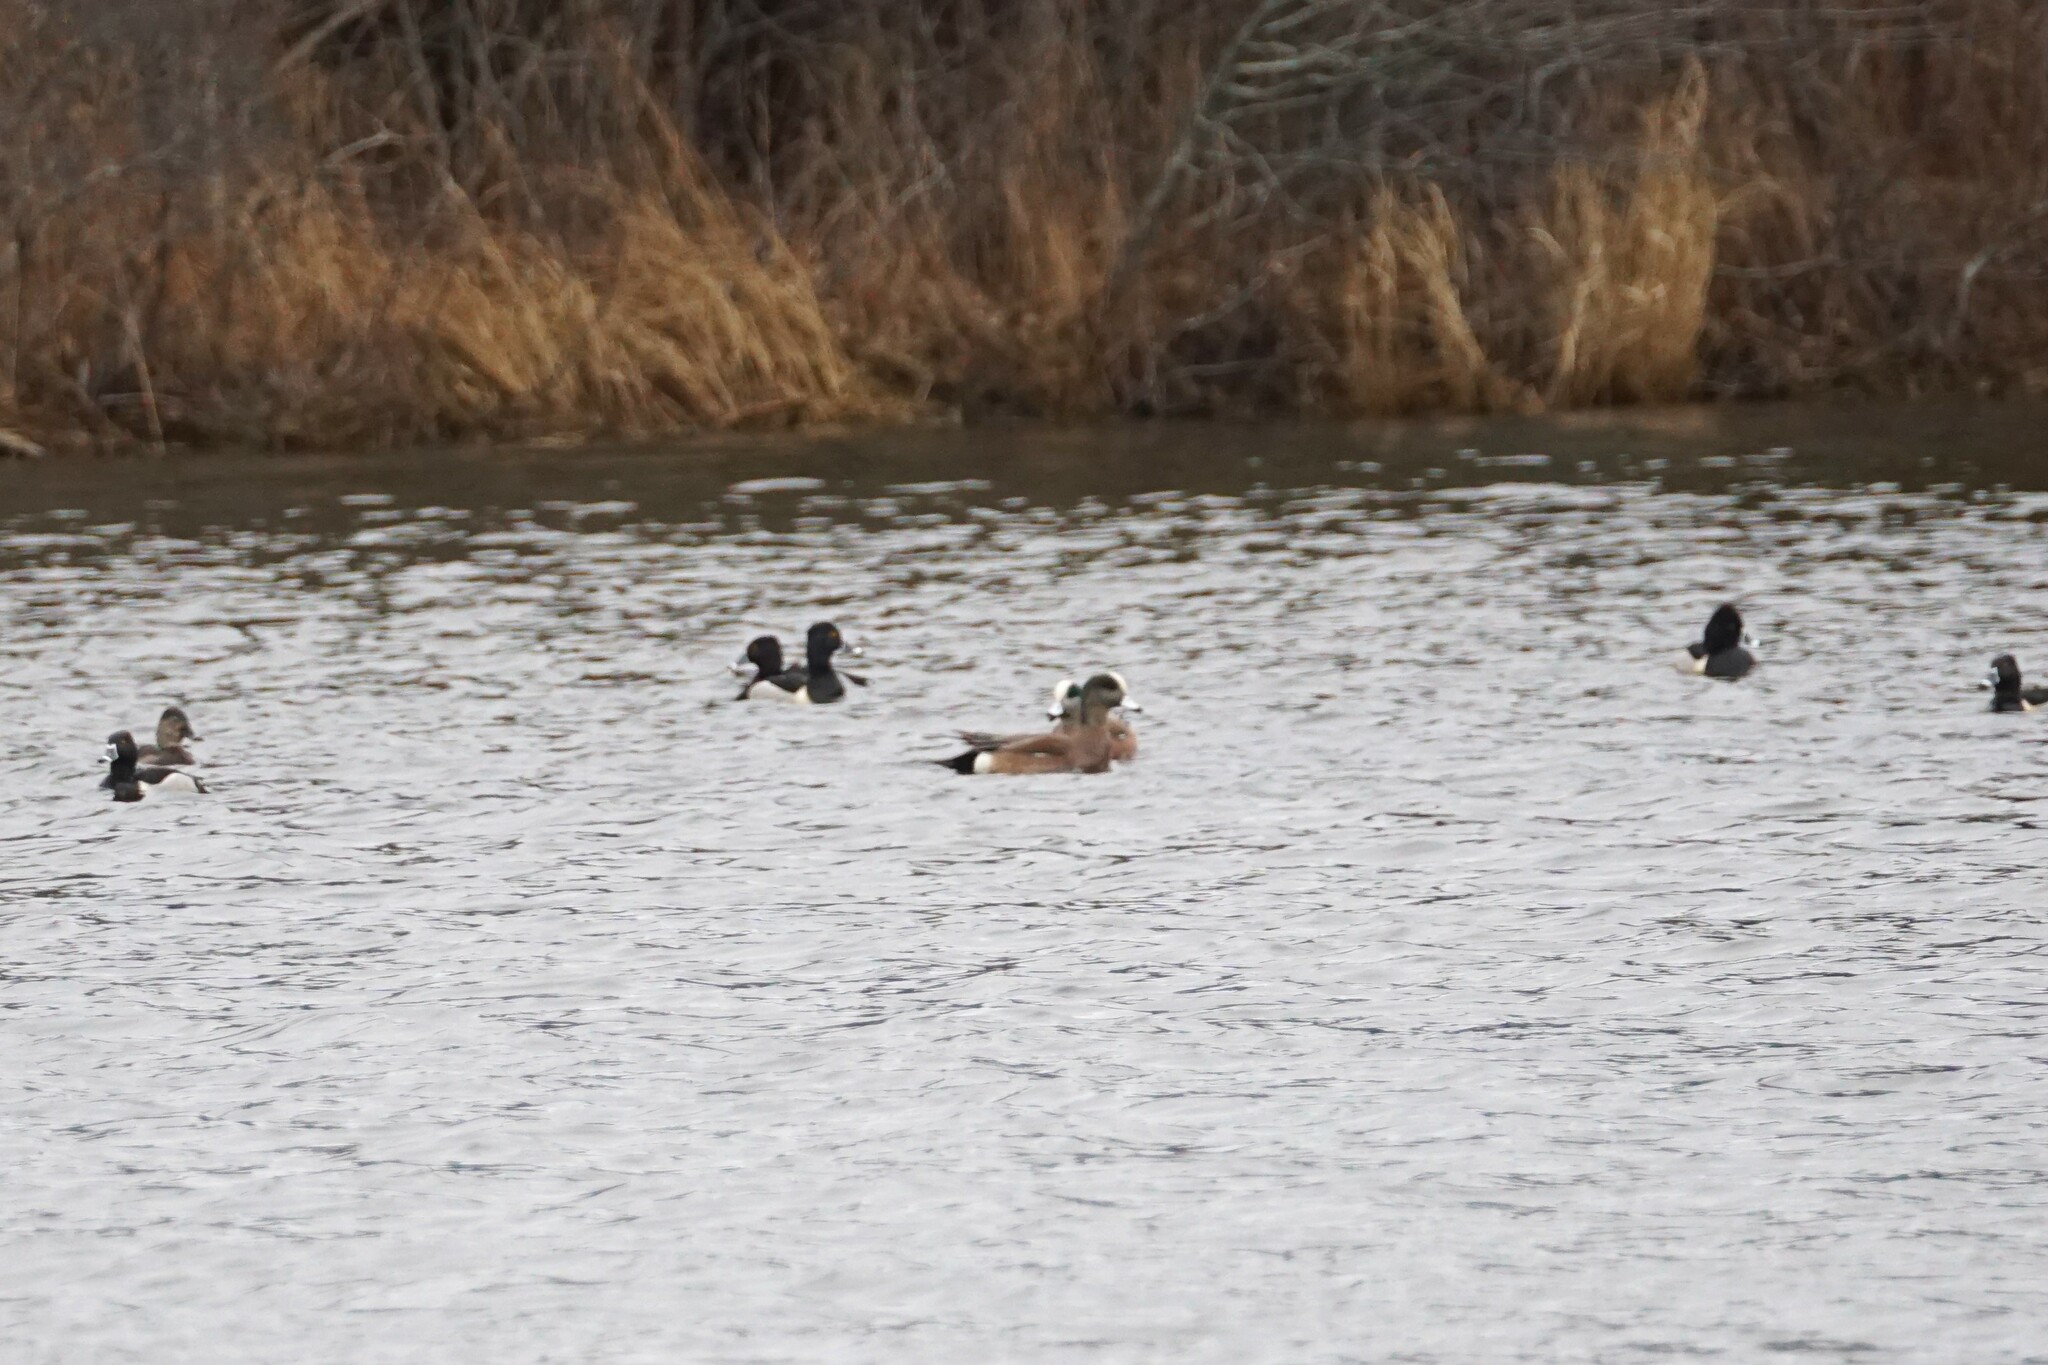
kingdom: Animalia
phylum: Chordata
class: Aves
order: Anseriformes
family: Anatidae
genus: Mareca
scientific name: Mareca americana
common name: American wigeon
